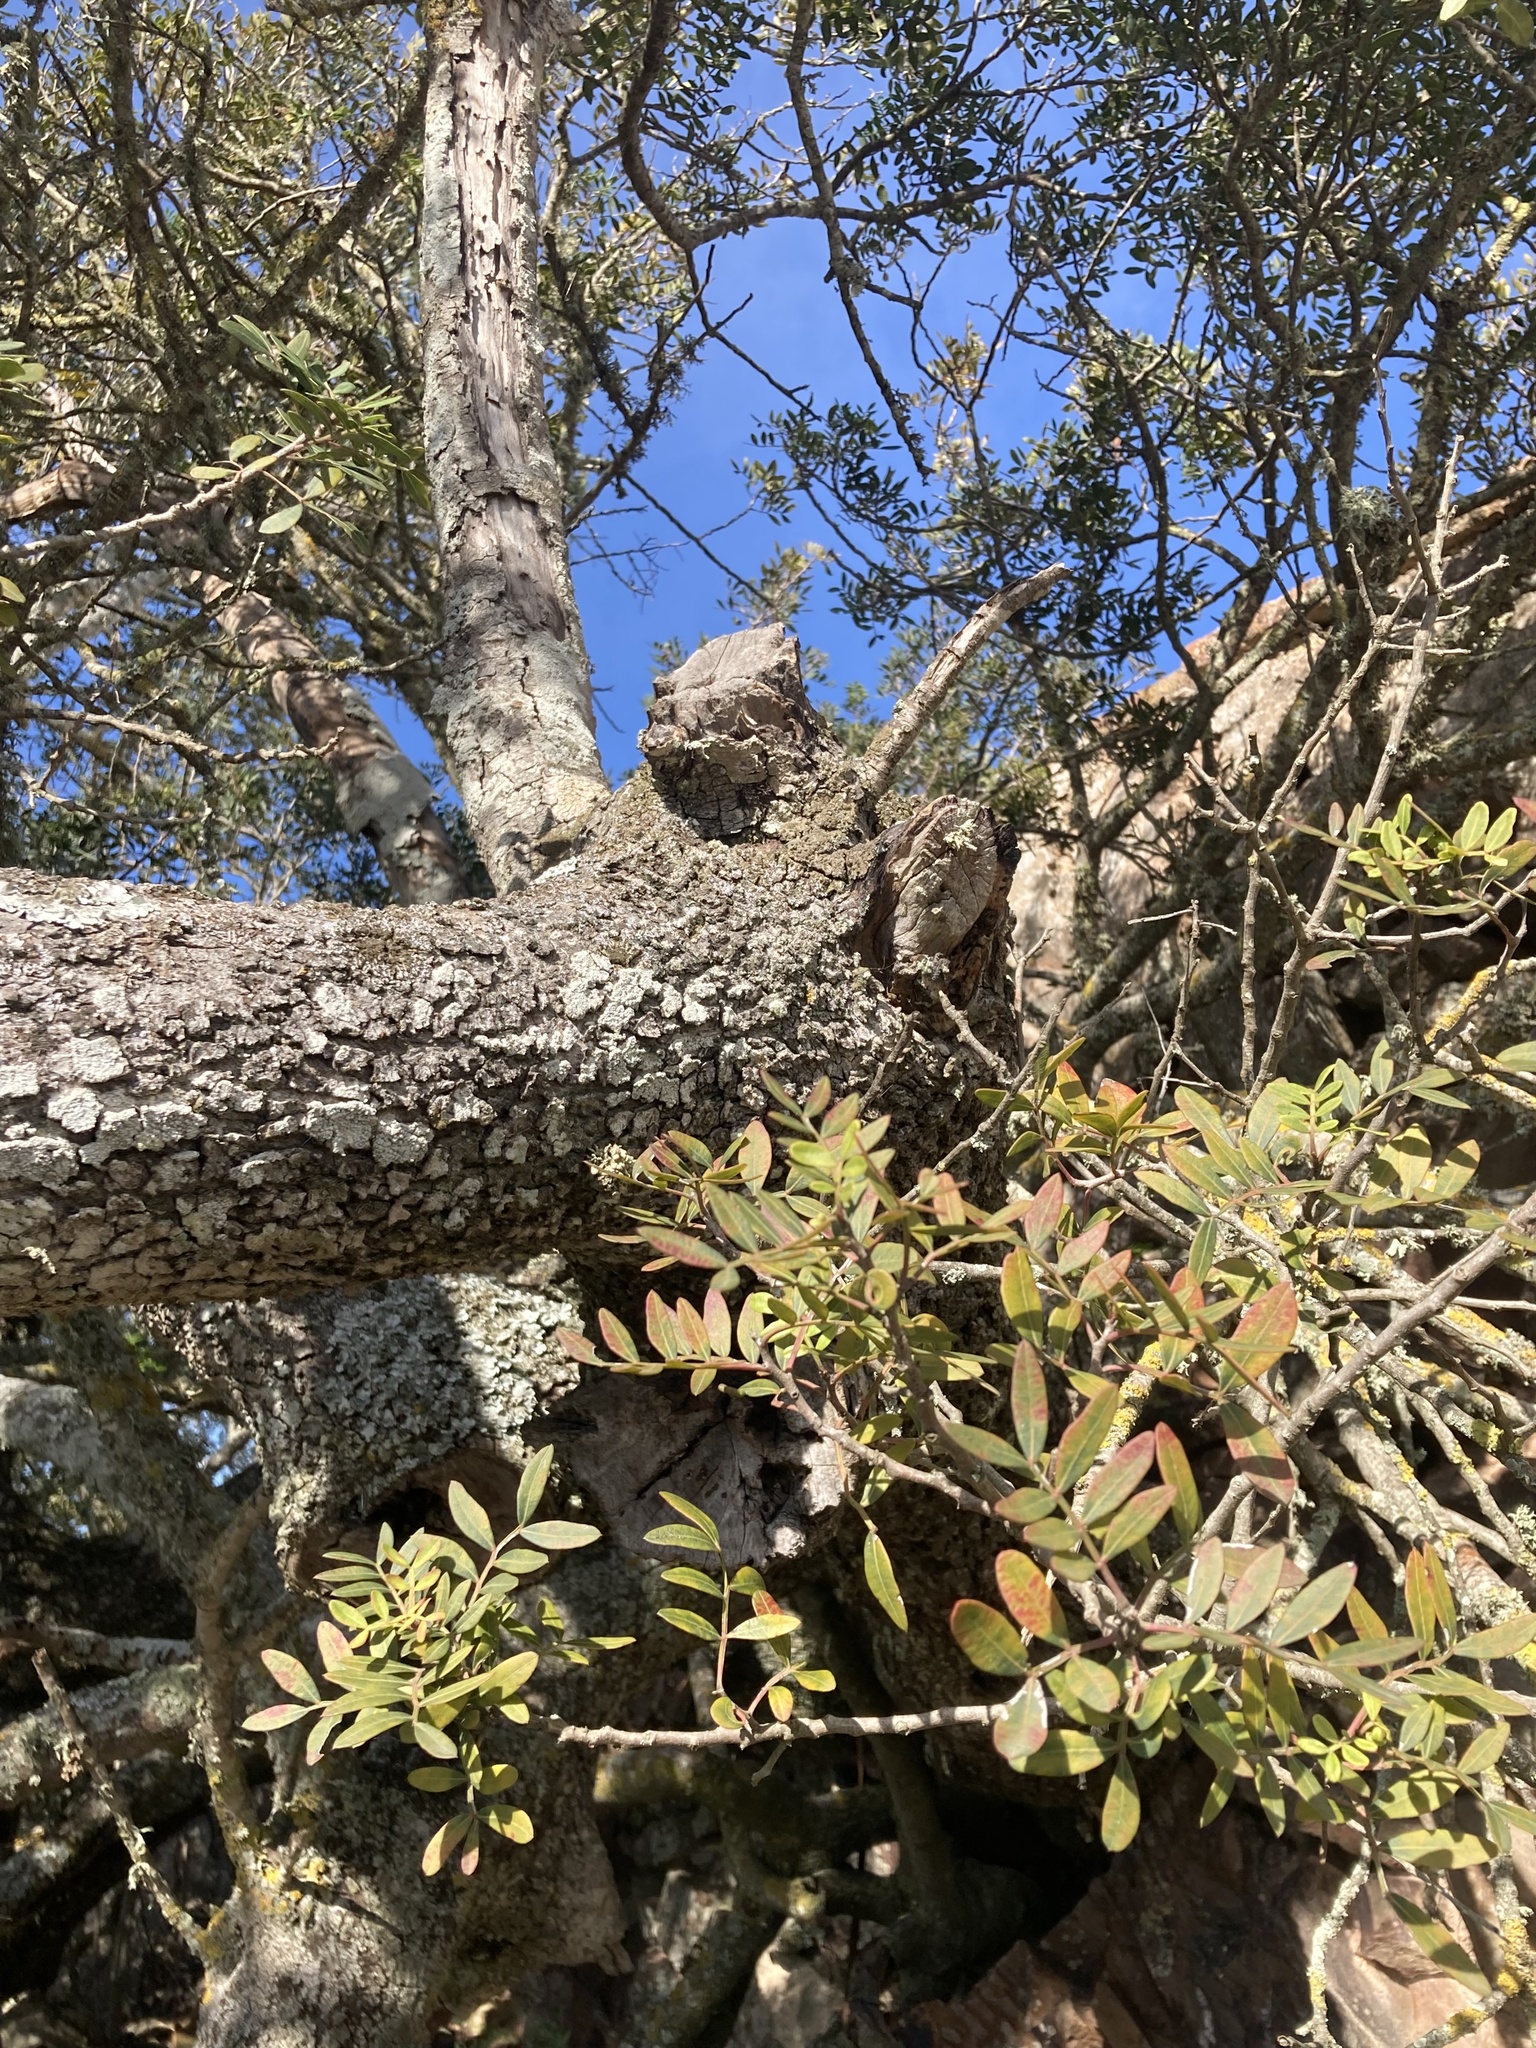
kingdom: Plantae
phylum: Tracheophyta
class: Magnoliopsida
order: Sapindales
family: Anacardiaceae
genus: Pistacia
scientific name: Pistacia lentiscus
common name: Lentisk
